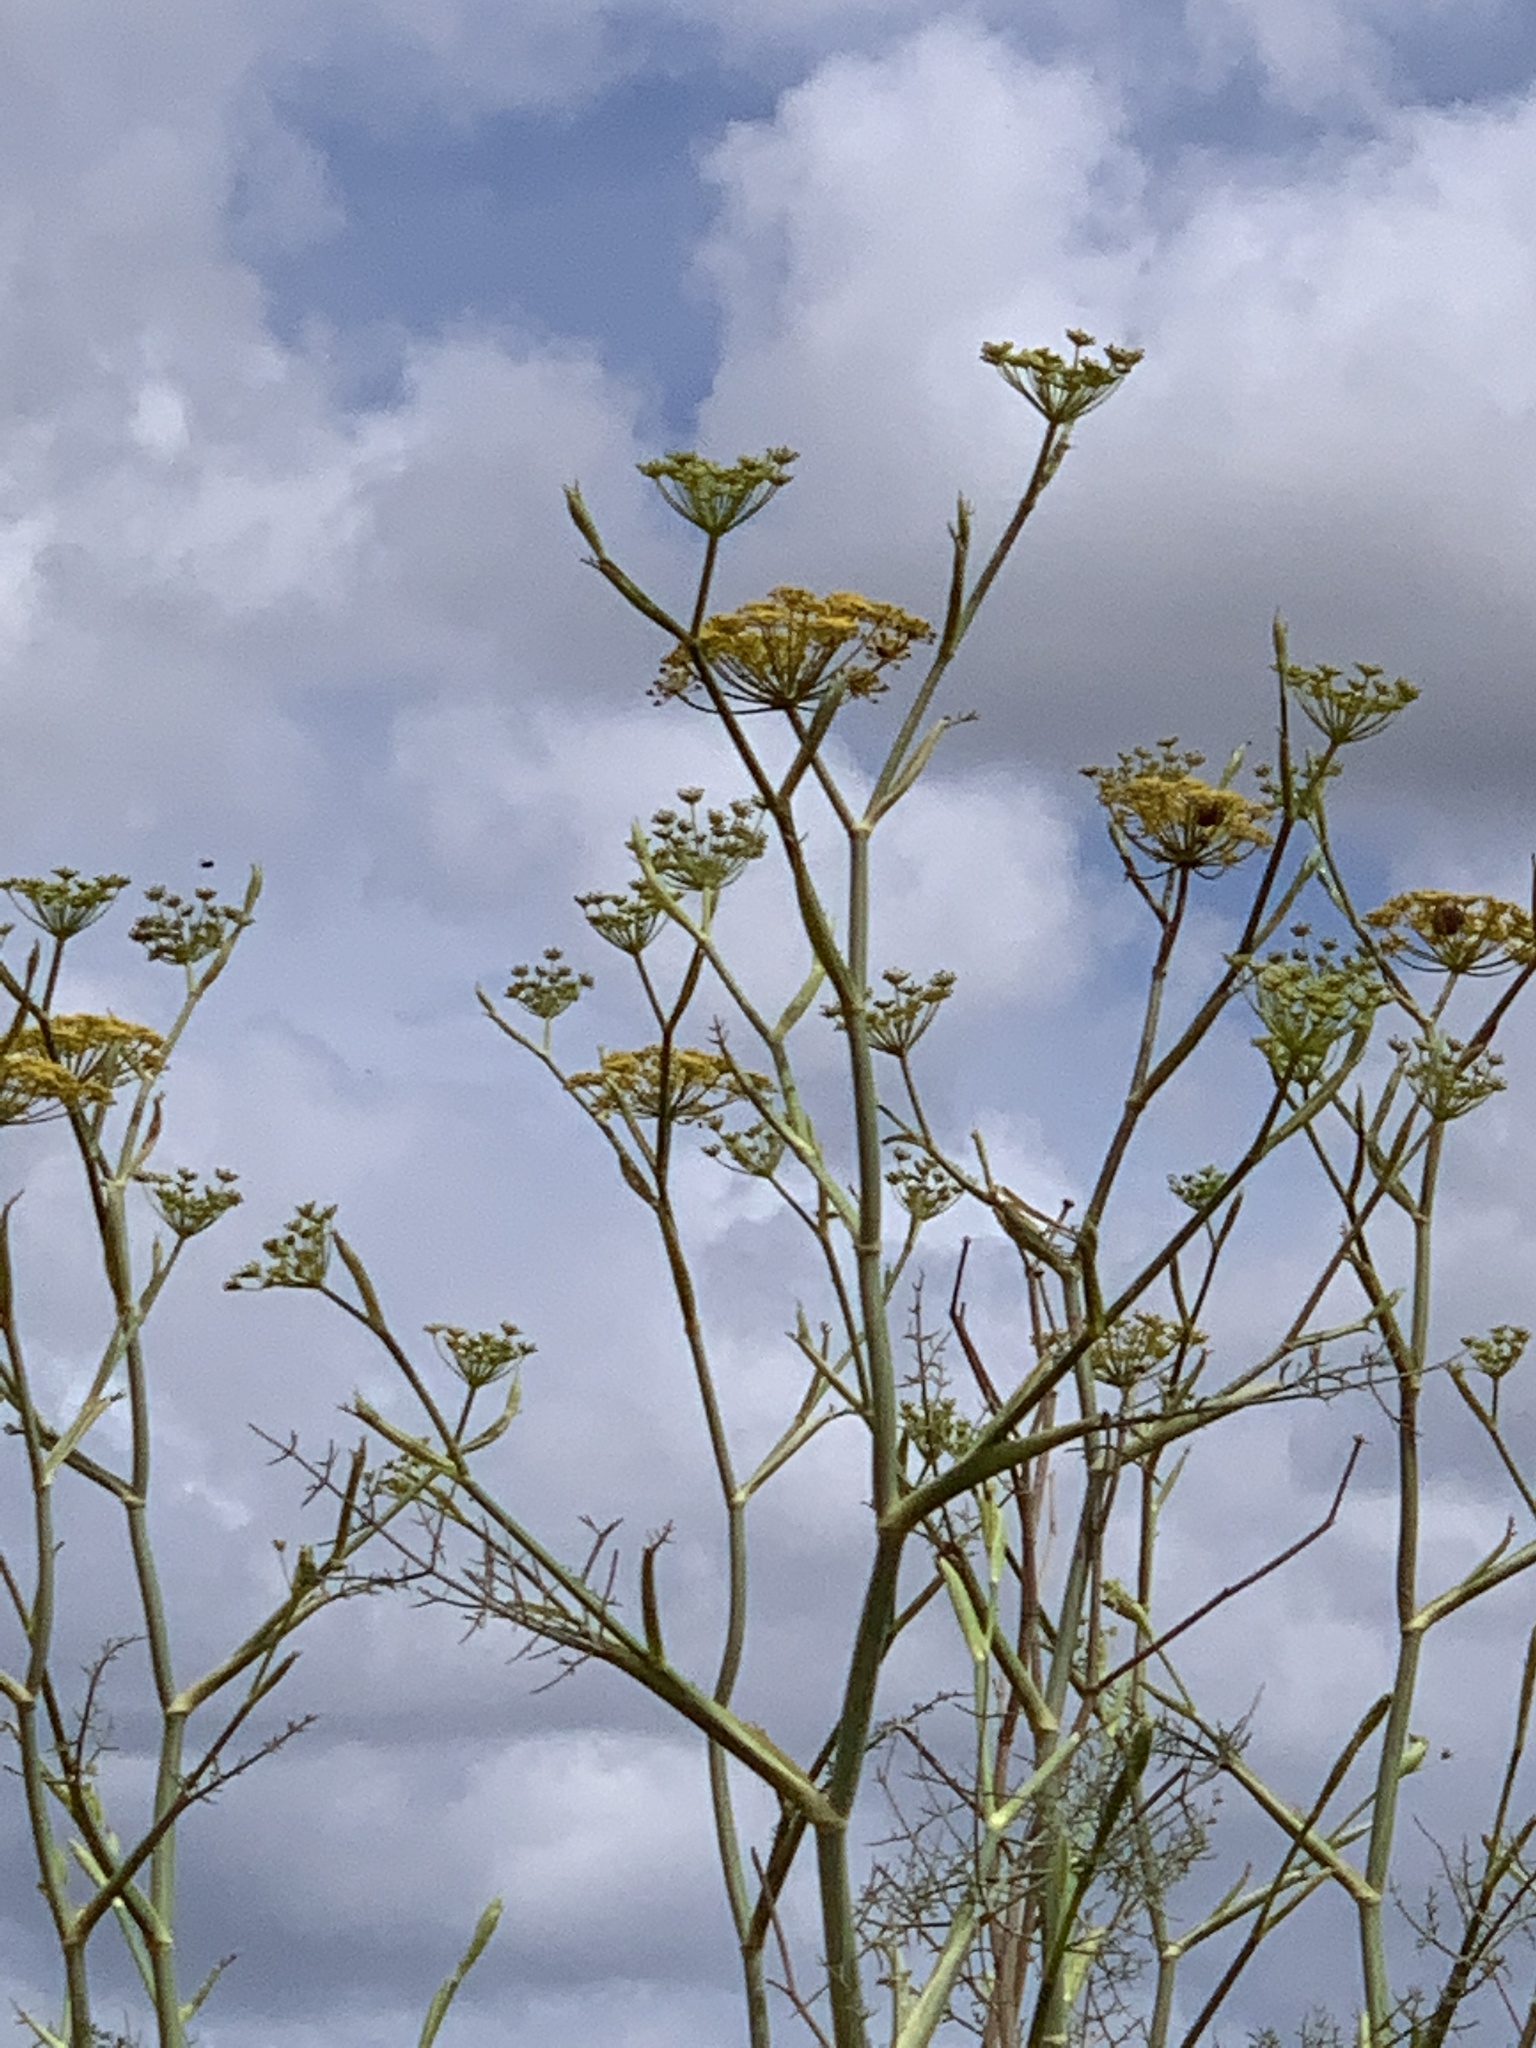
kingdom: Plantae
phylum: Tracheophyta
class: Magnoliopsida
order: Apiales
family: Apiaceae
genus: Foeniculum
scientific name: Foeniculum vulgare
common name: Fennel
